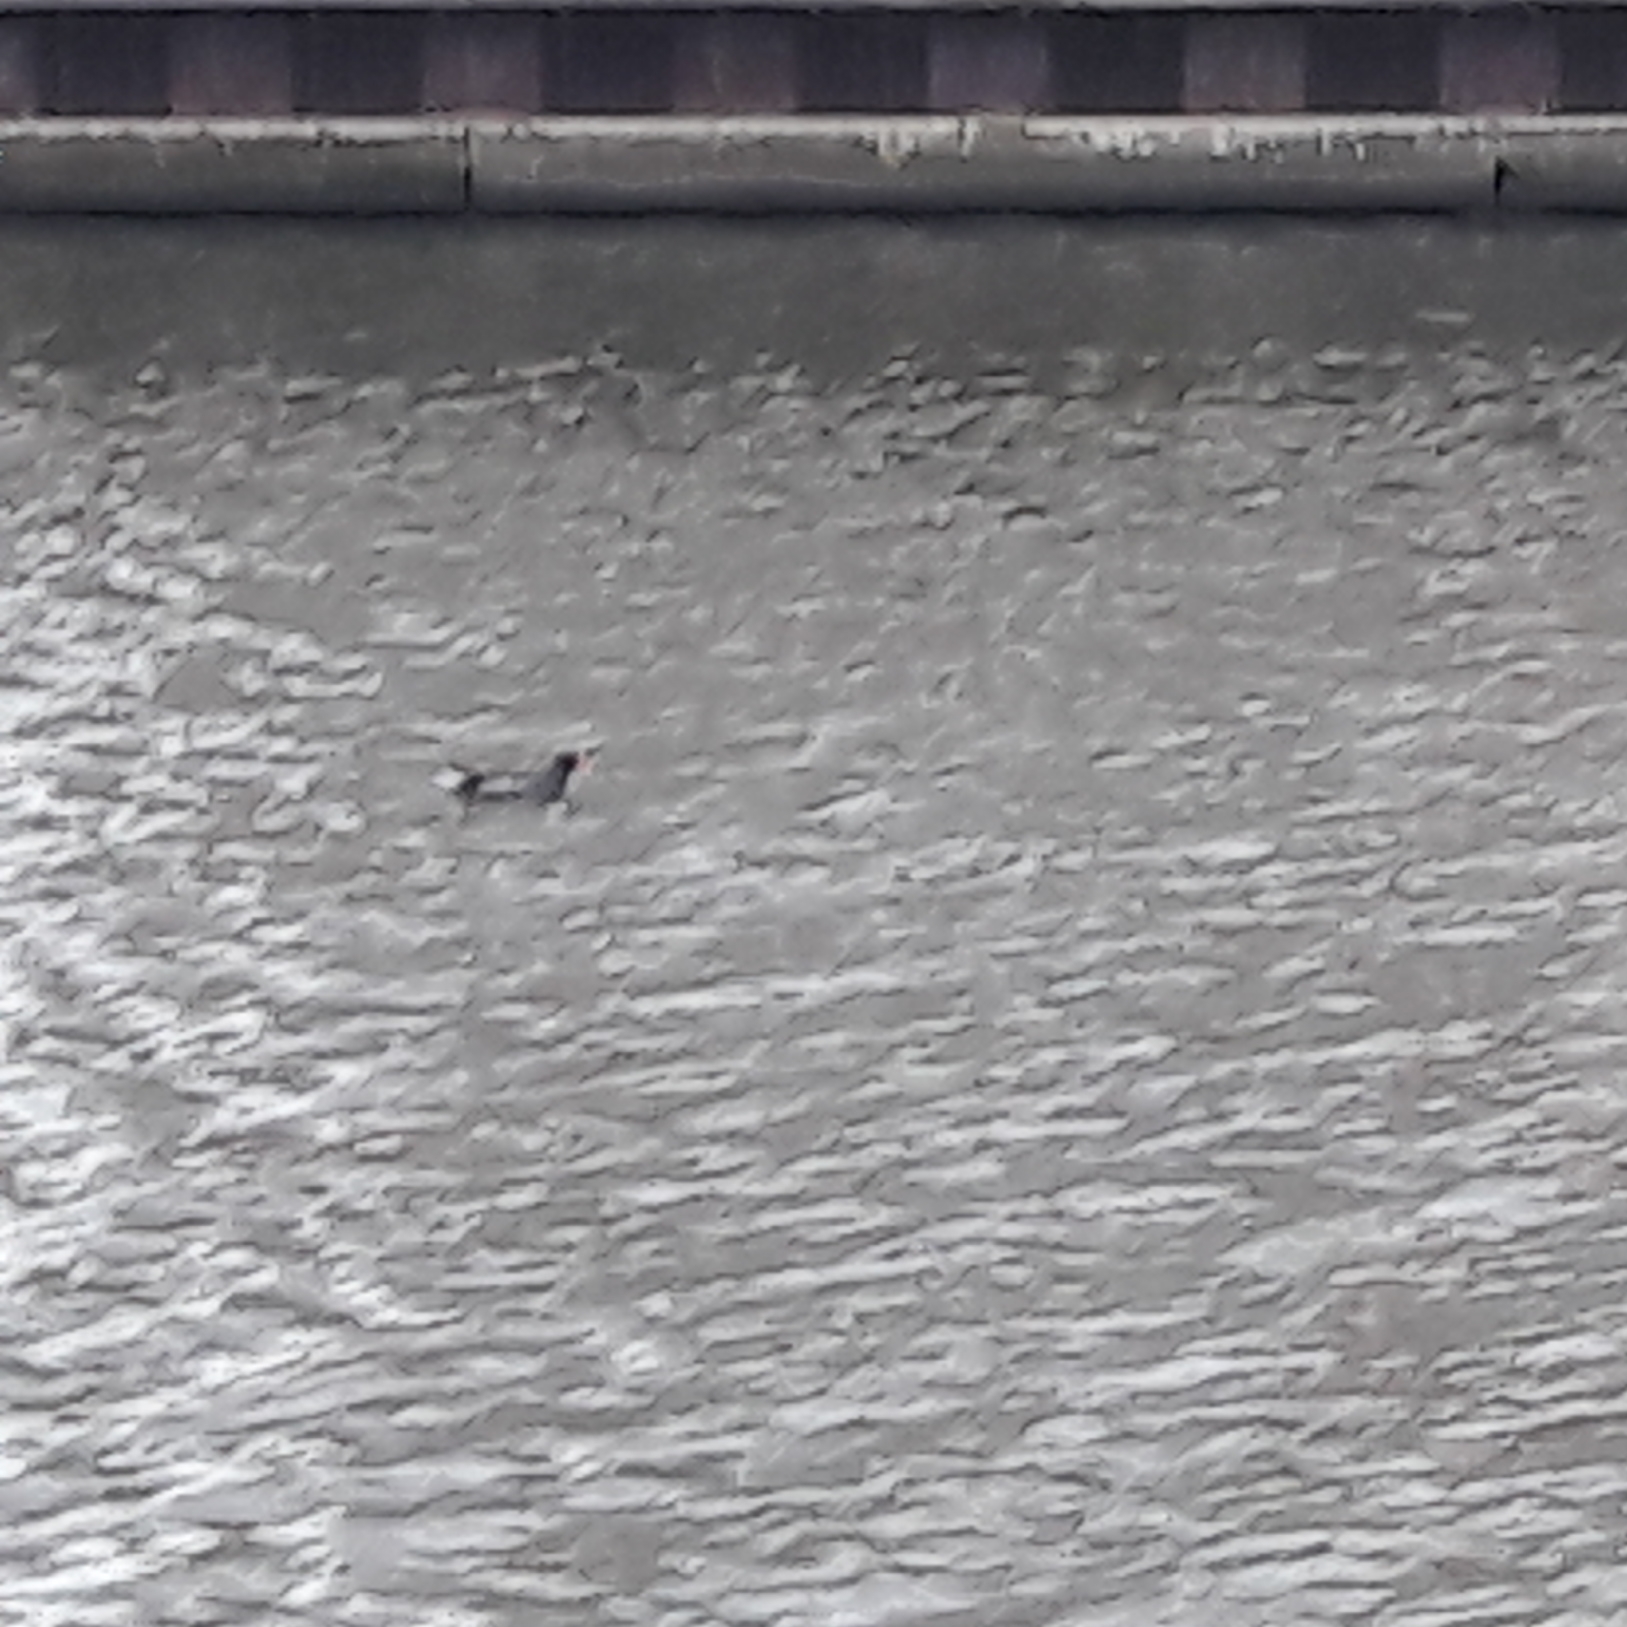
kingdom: Animalia
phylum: Chordata
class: Aves
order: Gruiformes
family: Rallidae
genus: Gallinula
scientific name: Gallinula chloropus
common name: Common moorhen
